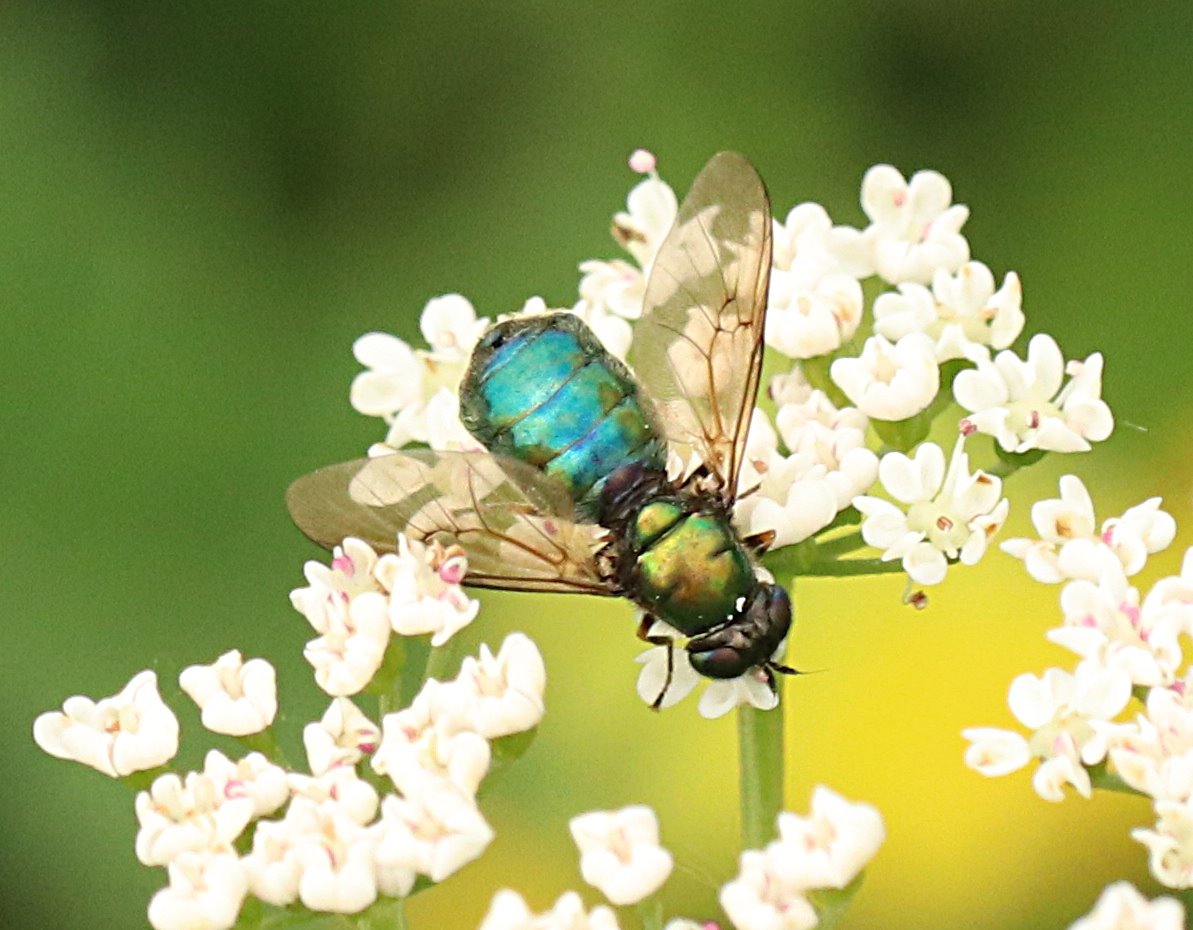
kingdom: Animalia
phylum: Arthropoda
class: Insecta
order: Diptera
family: Stratiomyidae
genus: Chloromyia
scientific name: Chloromyia formosa
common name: Soldier fly
